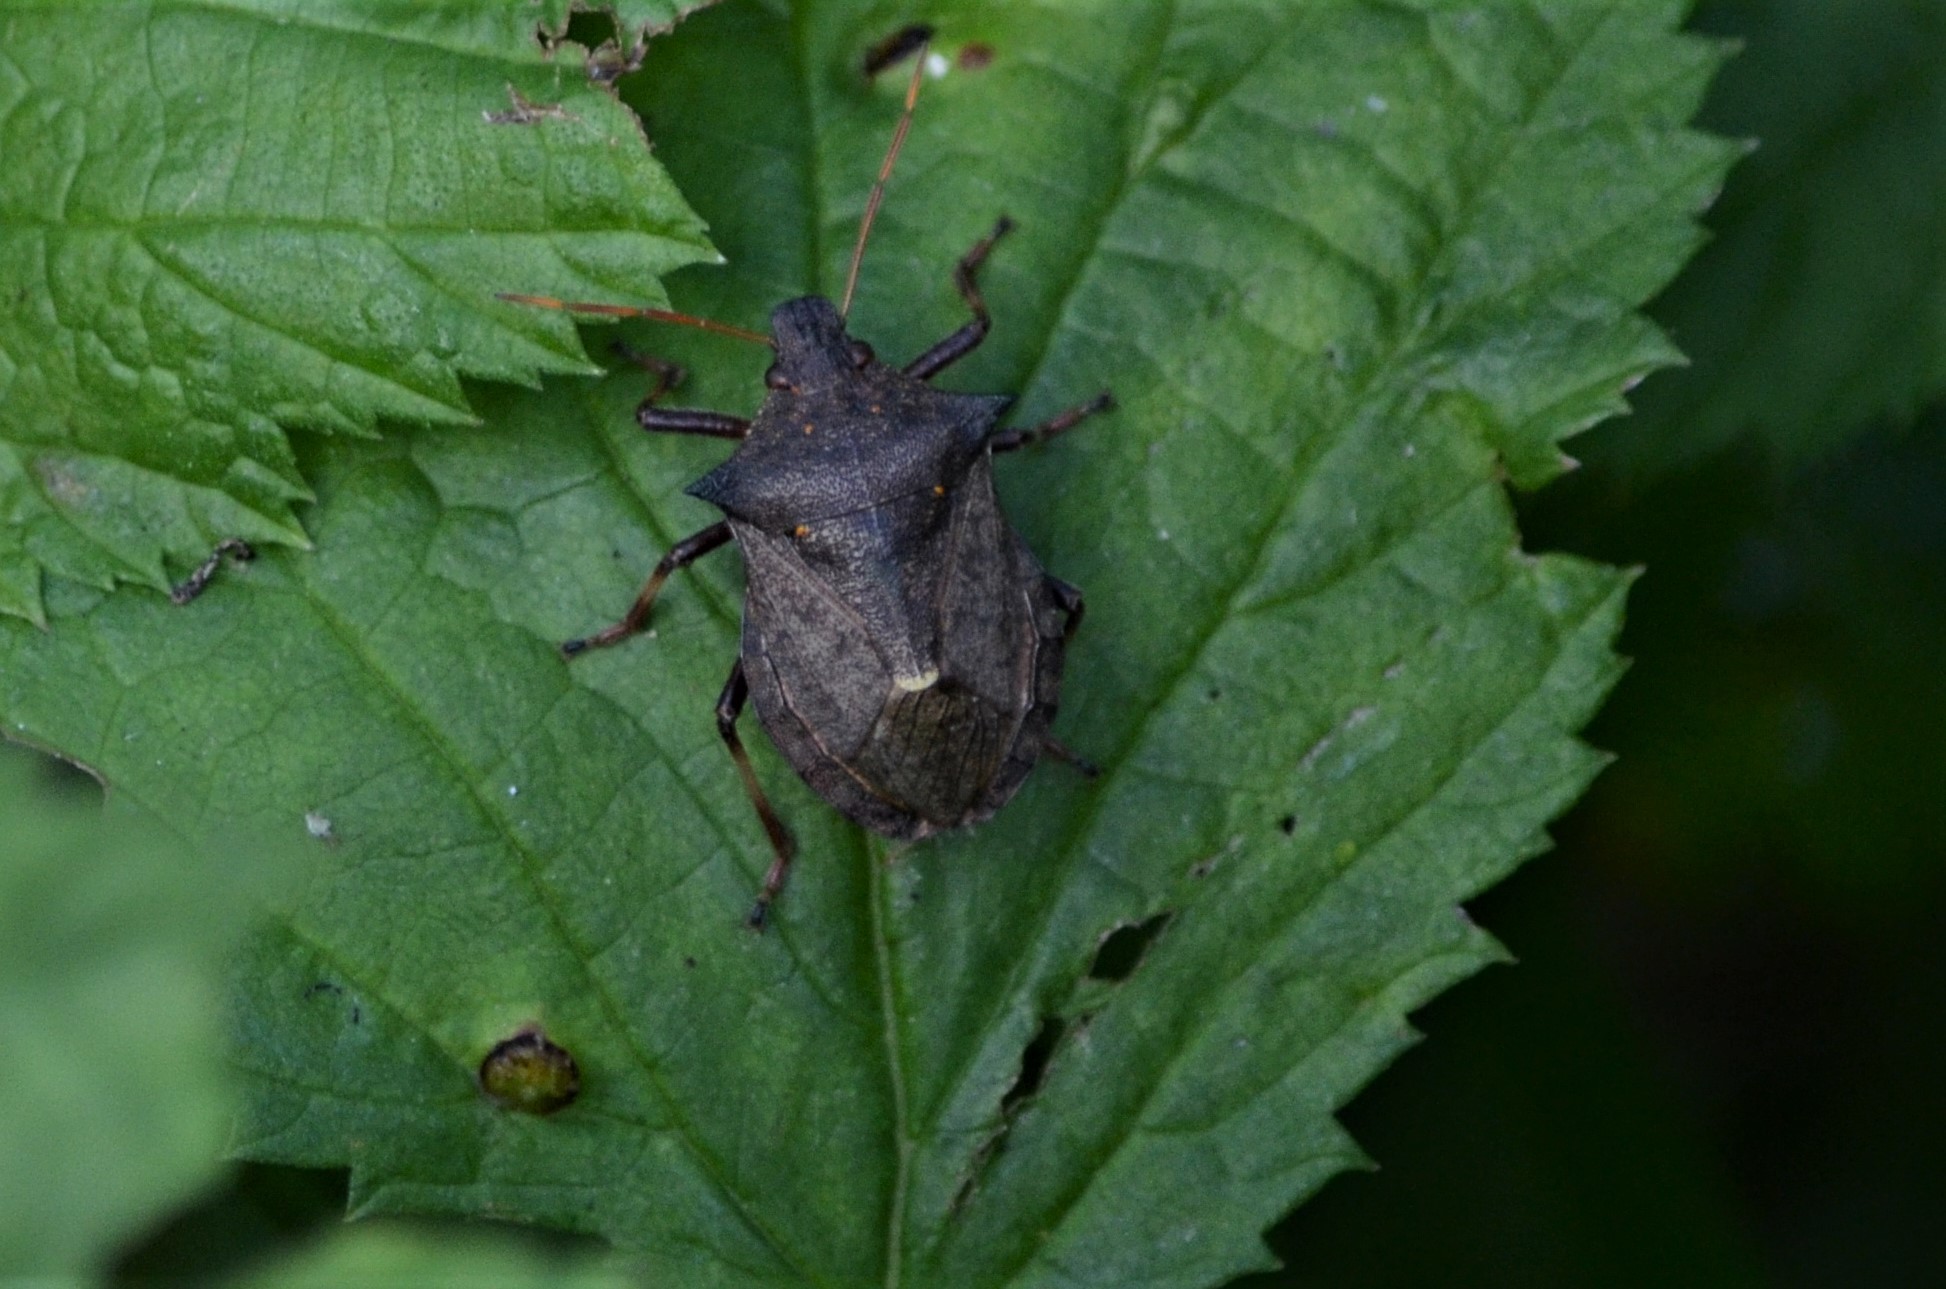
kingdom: Animalia
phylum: Arthropoda
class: Insecta
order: Hemiptera
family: Pentatomidae
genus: Picromerus
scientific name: Picromerus bidens
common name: Spiked shieldbug
